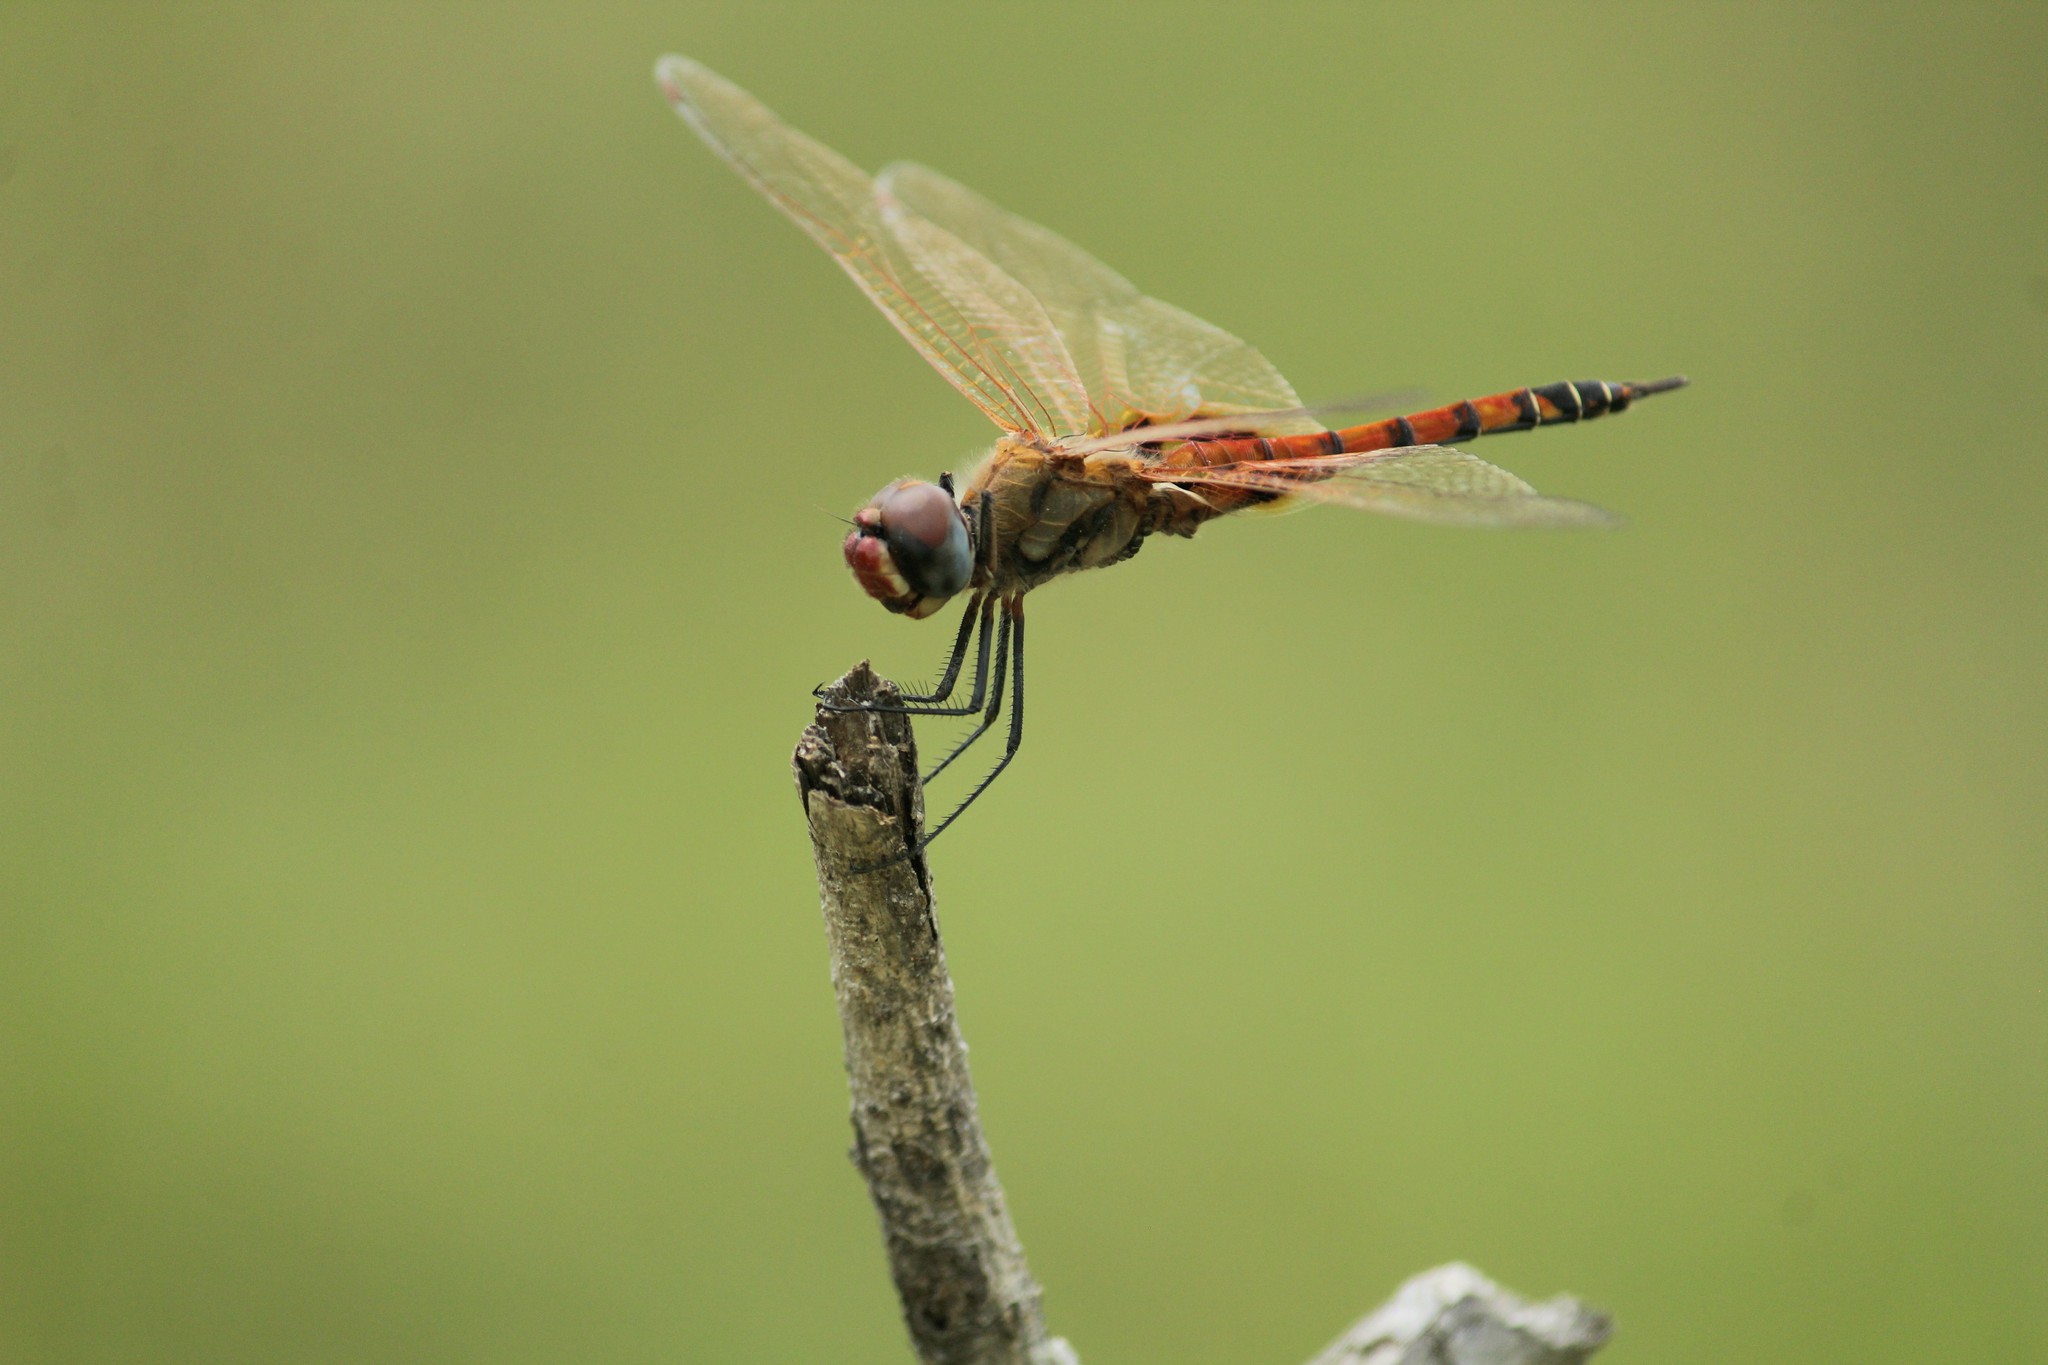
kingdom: Animalia
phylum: Arthropoda
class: Insecta
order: Odonata
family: Libellulidae
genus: Tramea
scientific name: Tramea basilaris
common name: Keyhole glider
